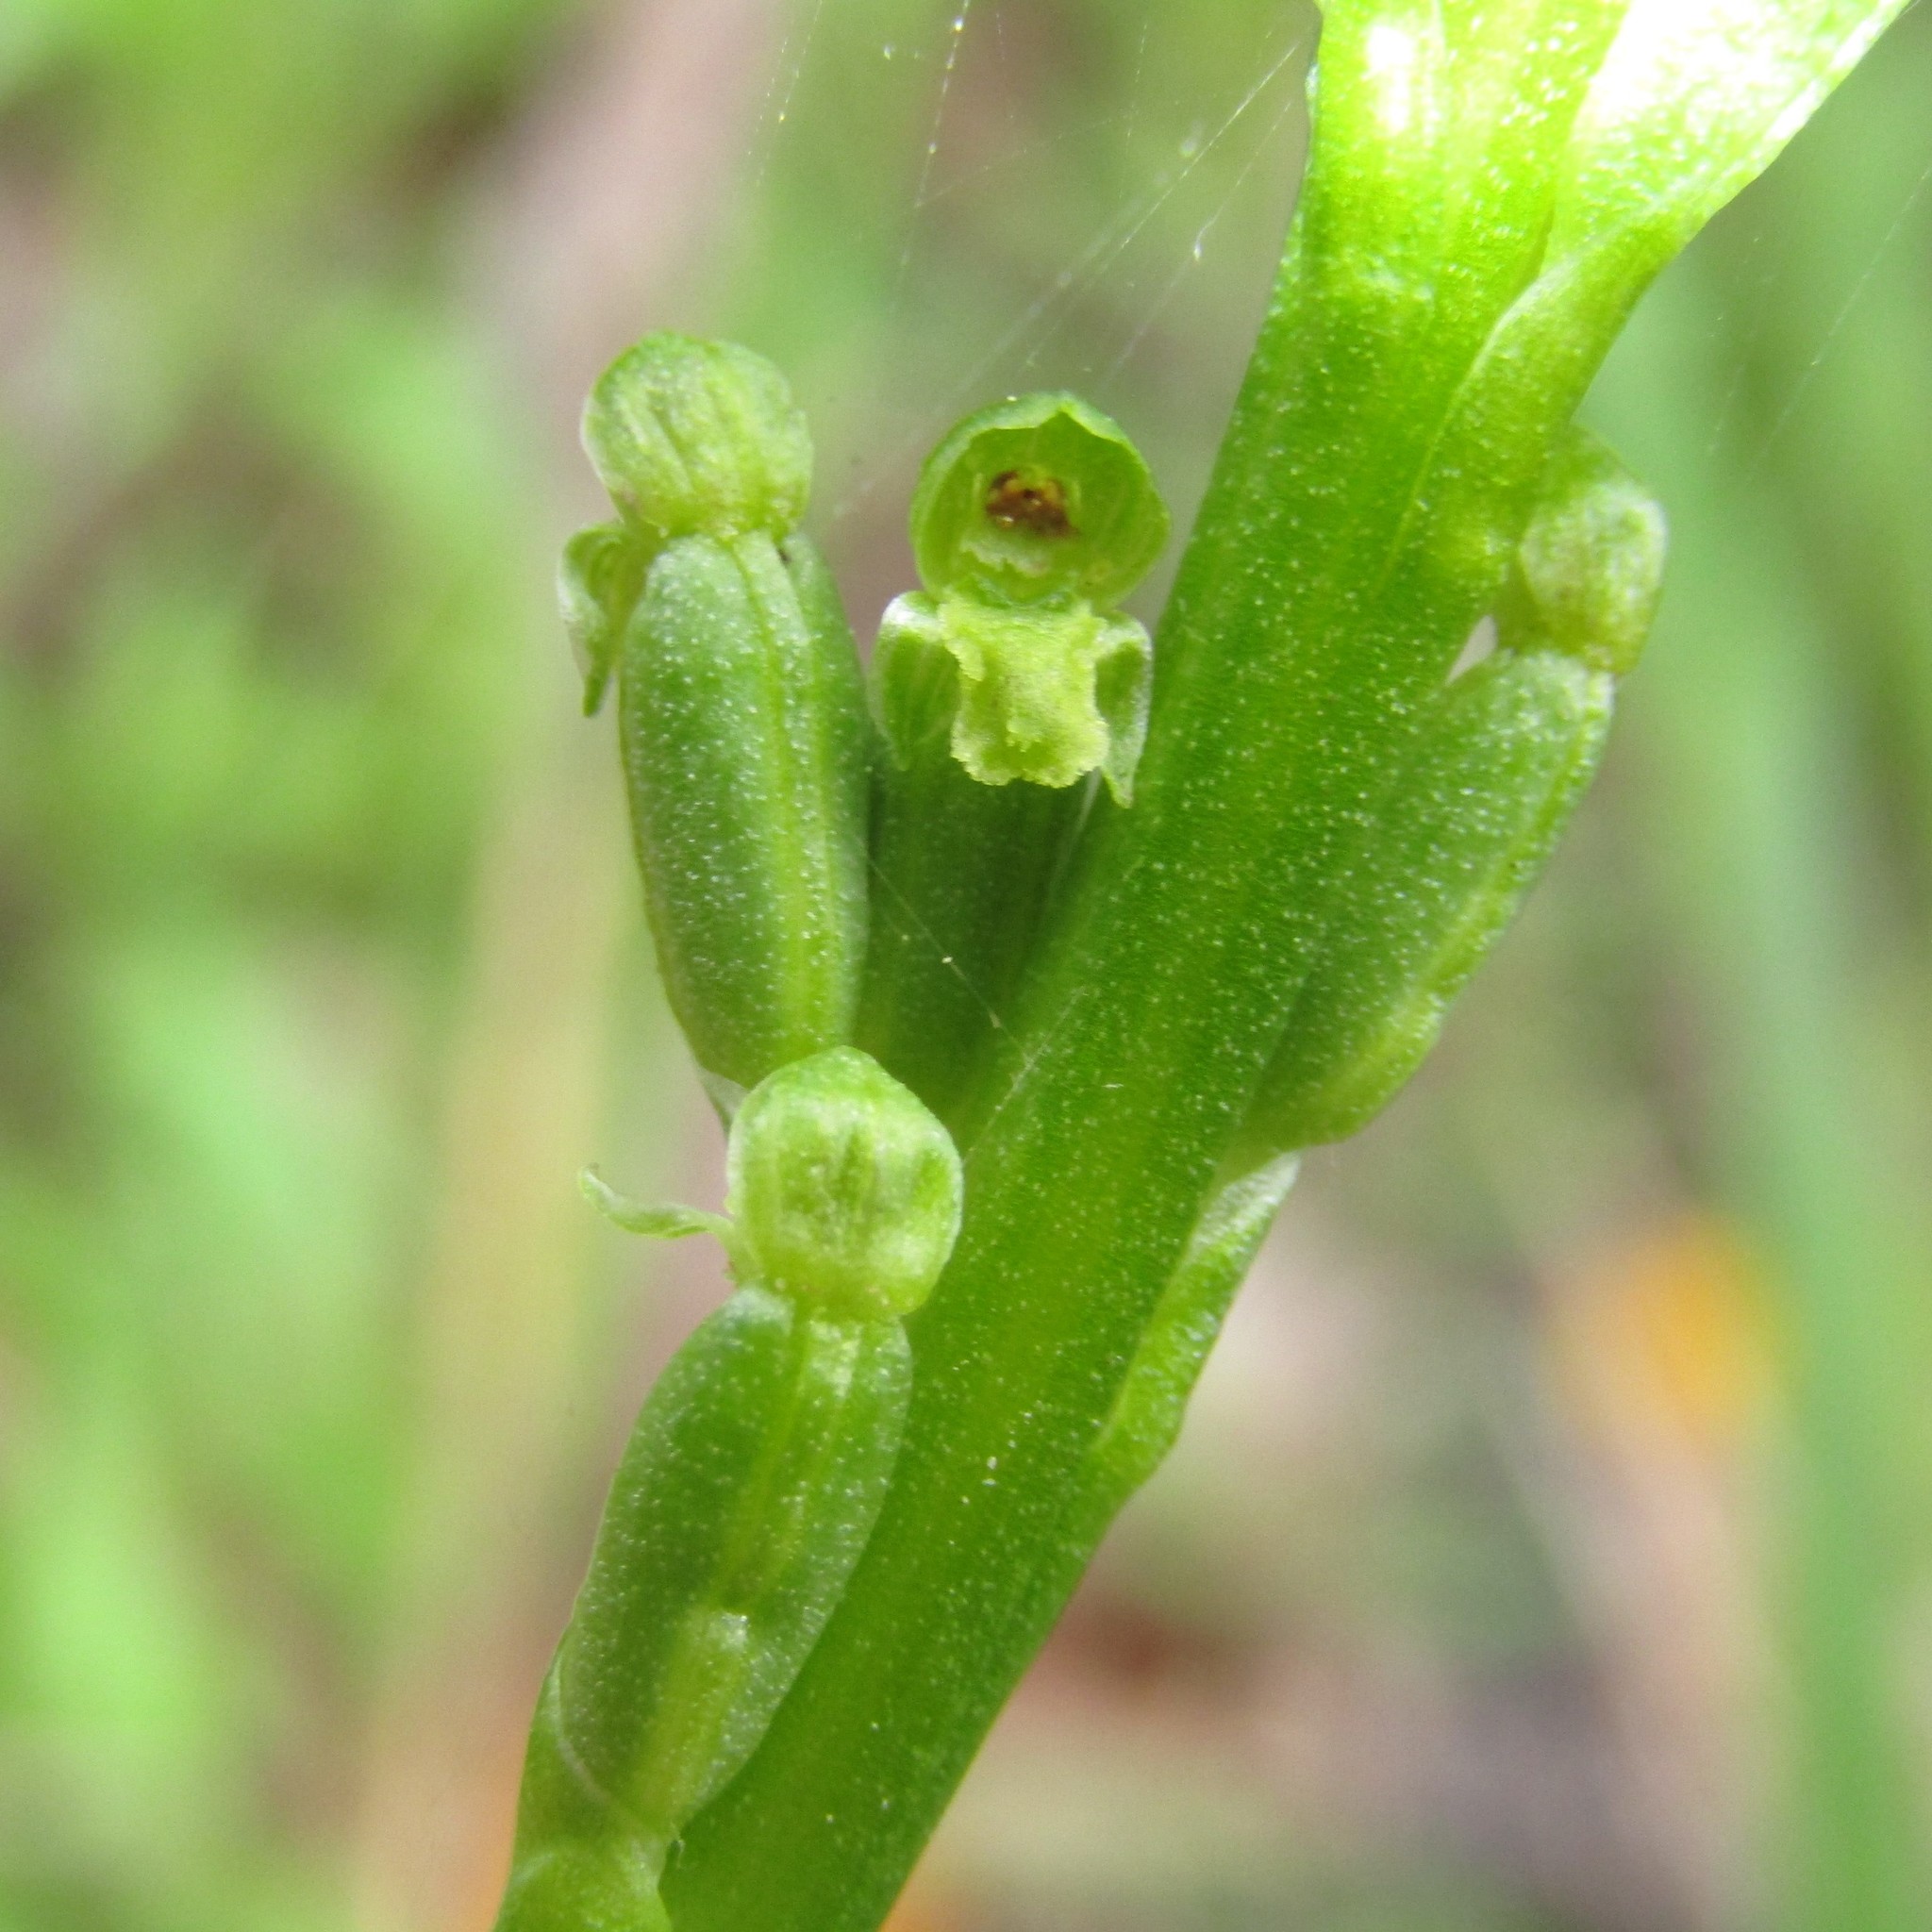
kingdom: Plantae
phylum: Tracheophyta
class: Liliopsida
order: Asparagales
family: Orchidaceae
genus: Microtis
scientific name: Microtis unifolia
